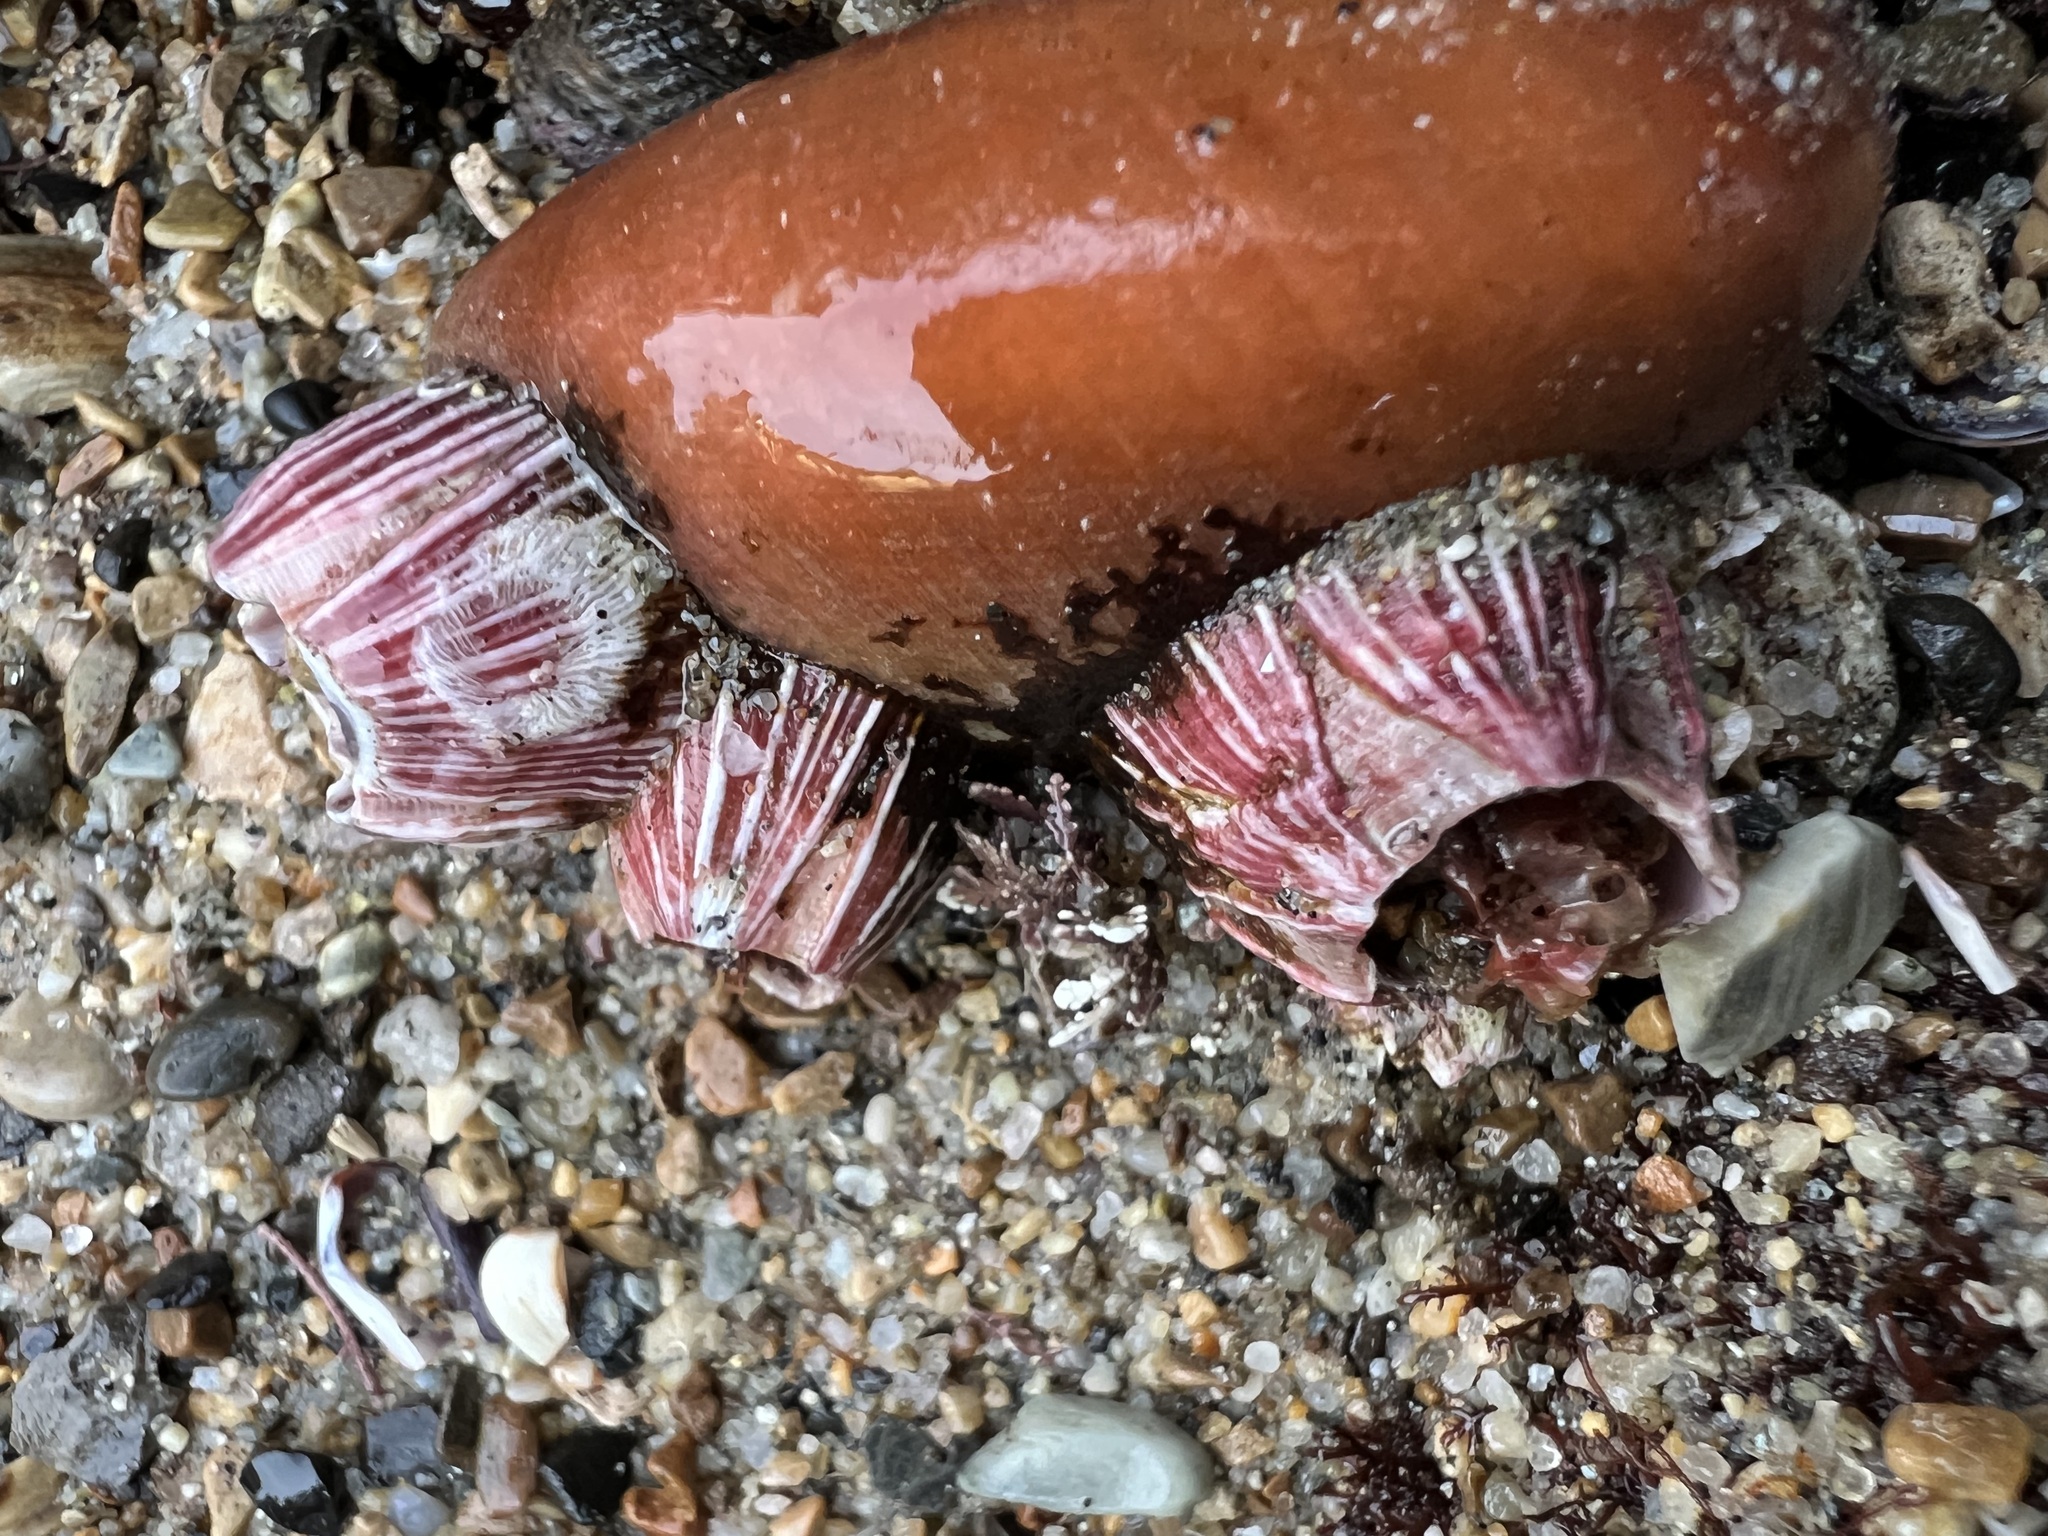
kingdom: Animalia
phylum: Arthropoda
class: Maxillopoda
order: Sessilia
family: Balanidae
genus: Megabalanus
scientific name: Megabalanus californicus
